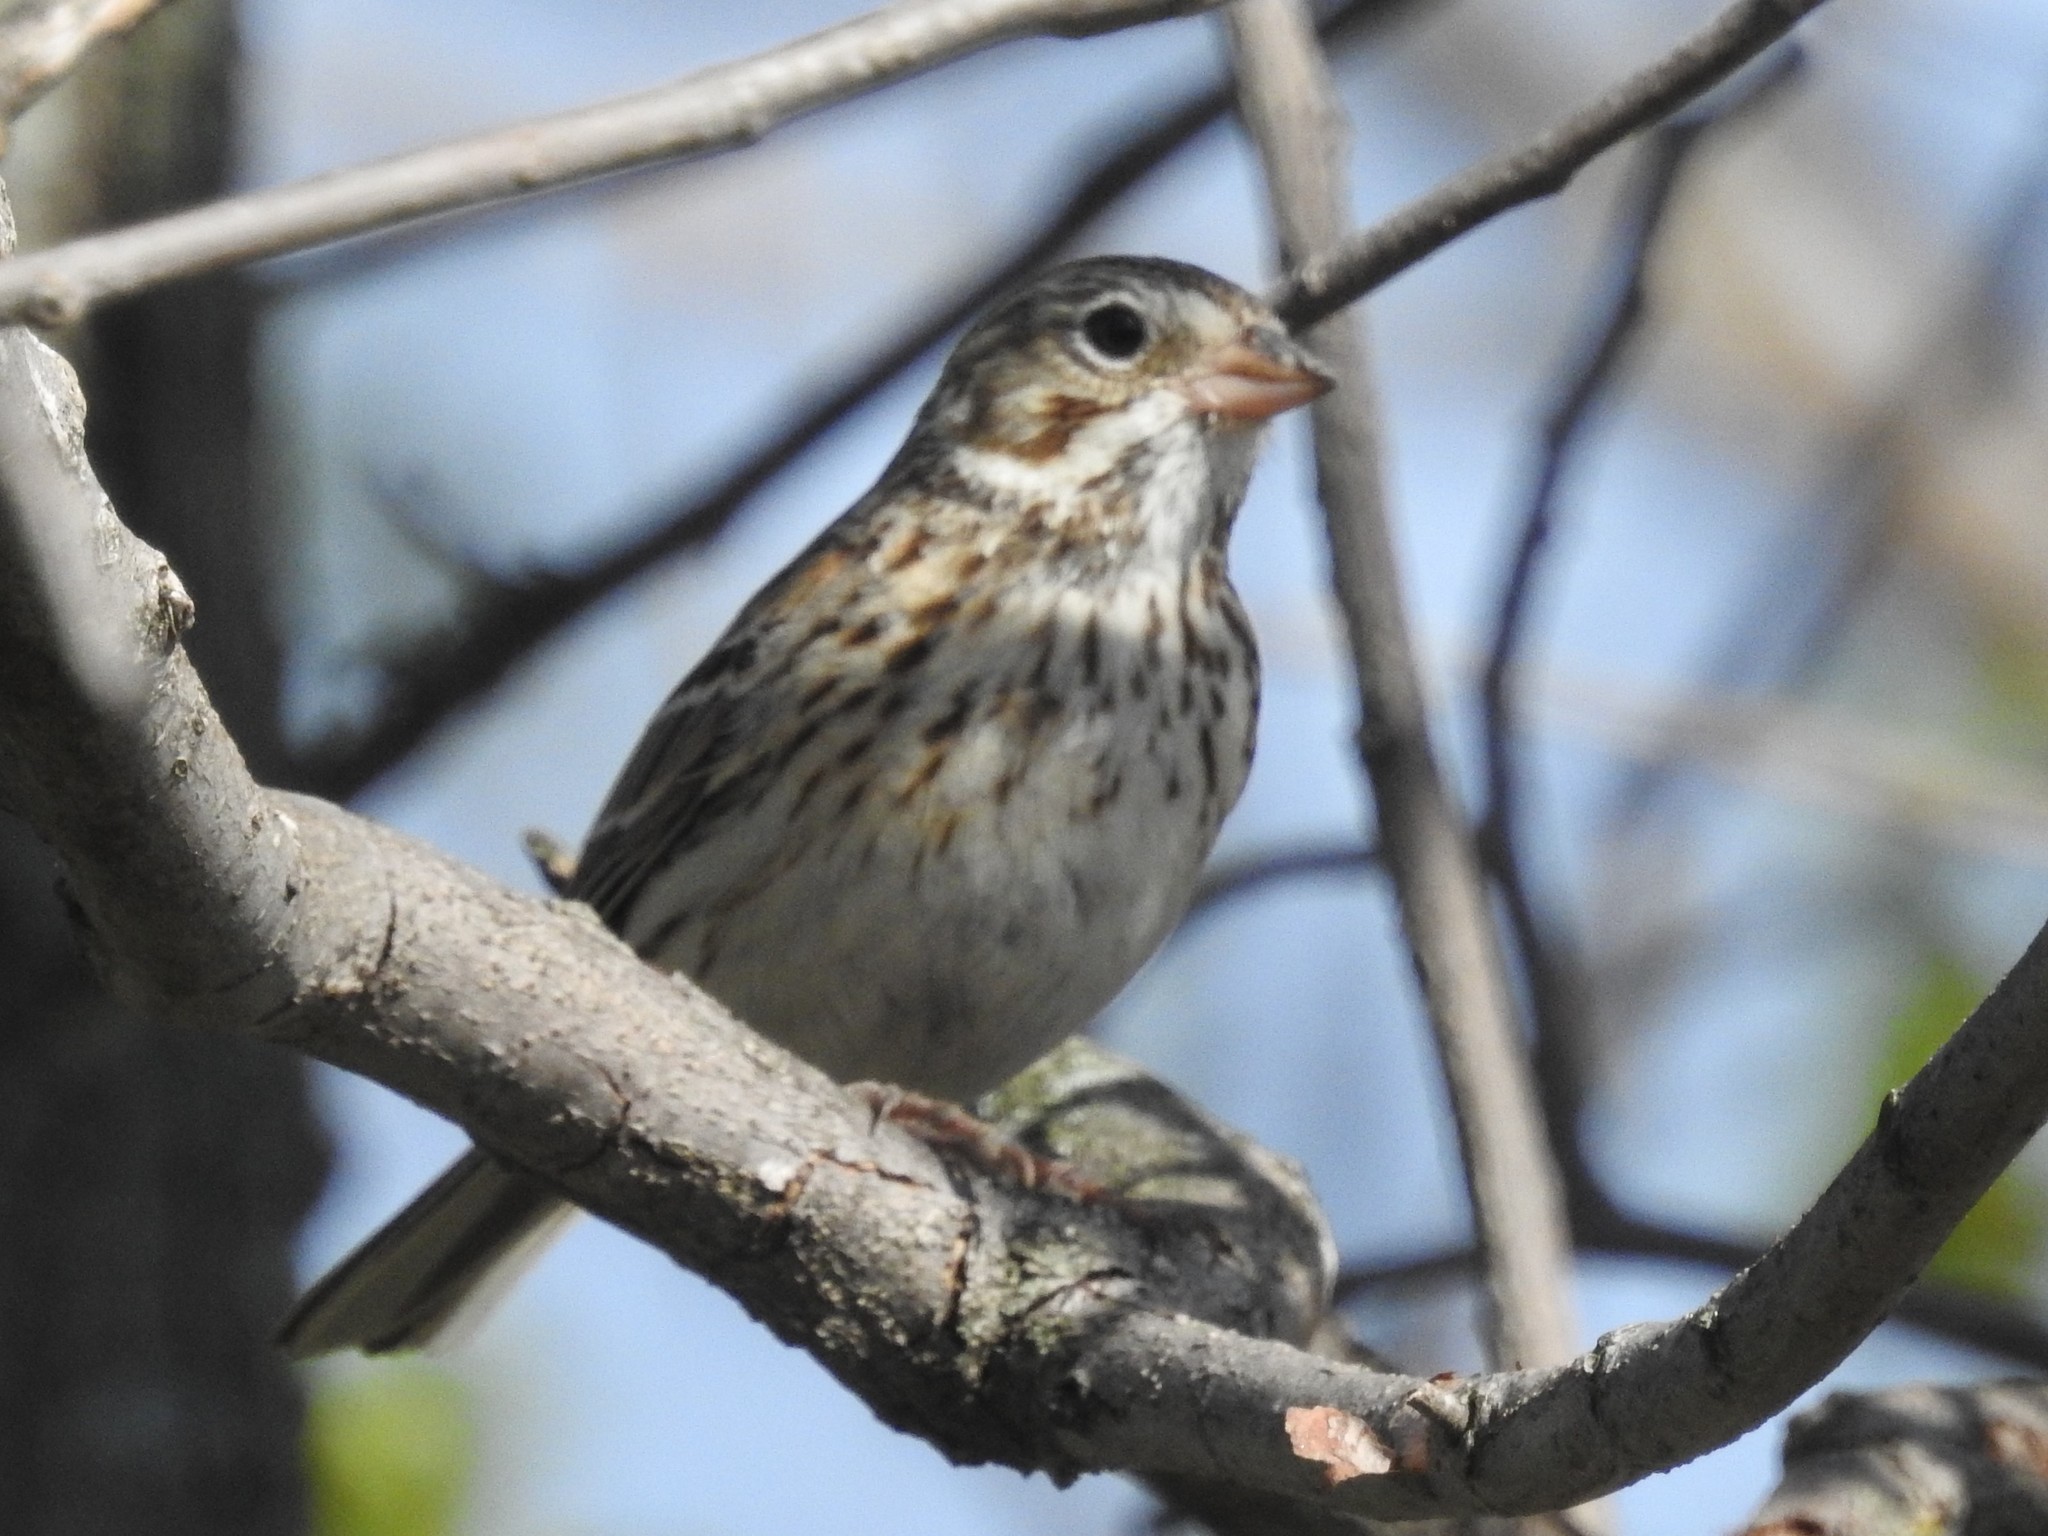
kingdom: Animalia
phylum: Chordata
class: Aves
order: Passeriformes
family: Passerellidae
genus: Pooecetes
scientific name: Pooecetes gramineus
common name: Vesper sparrow
